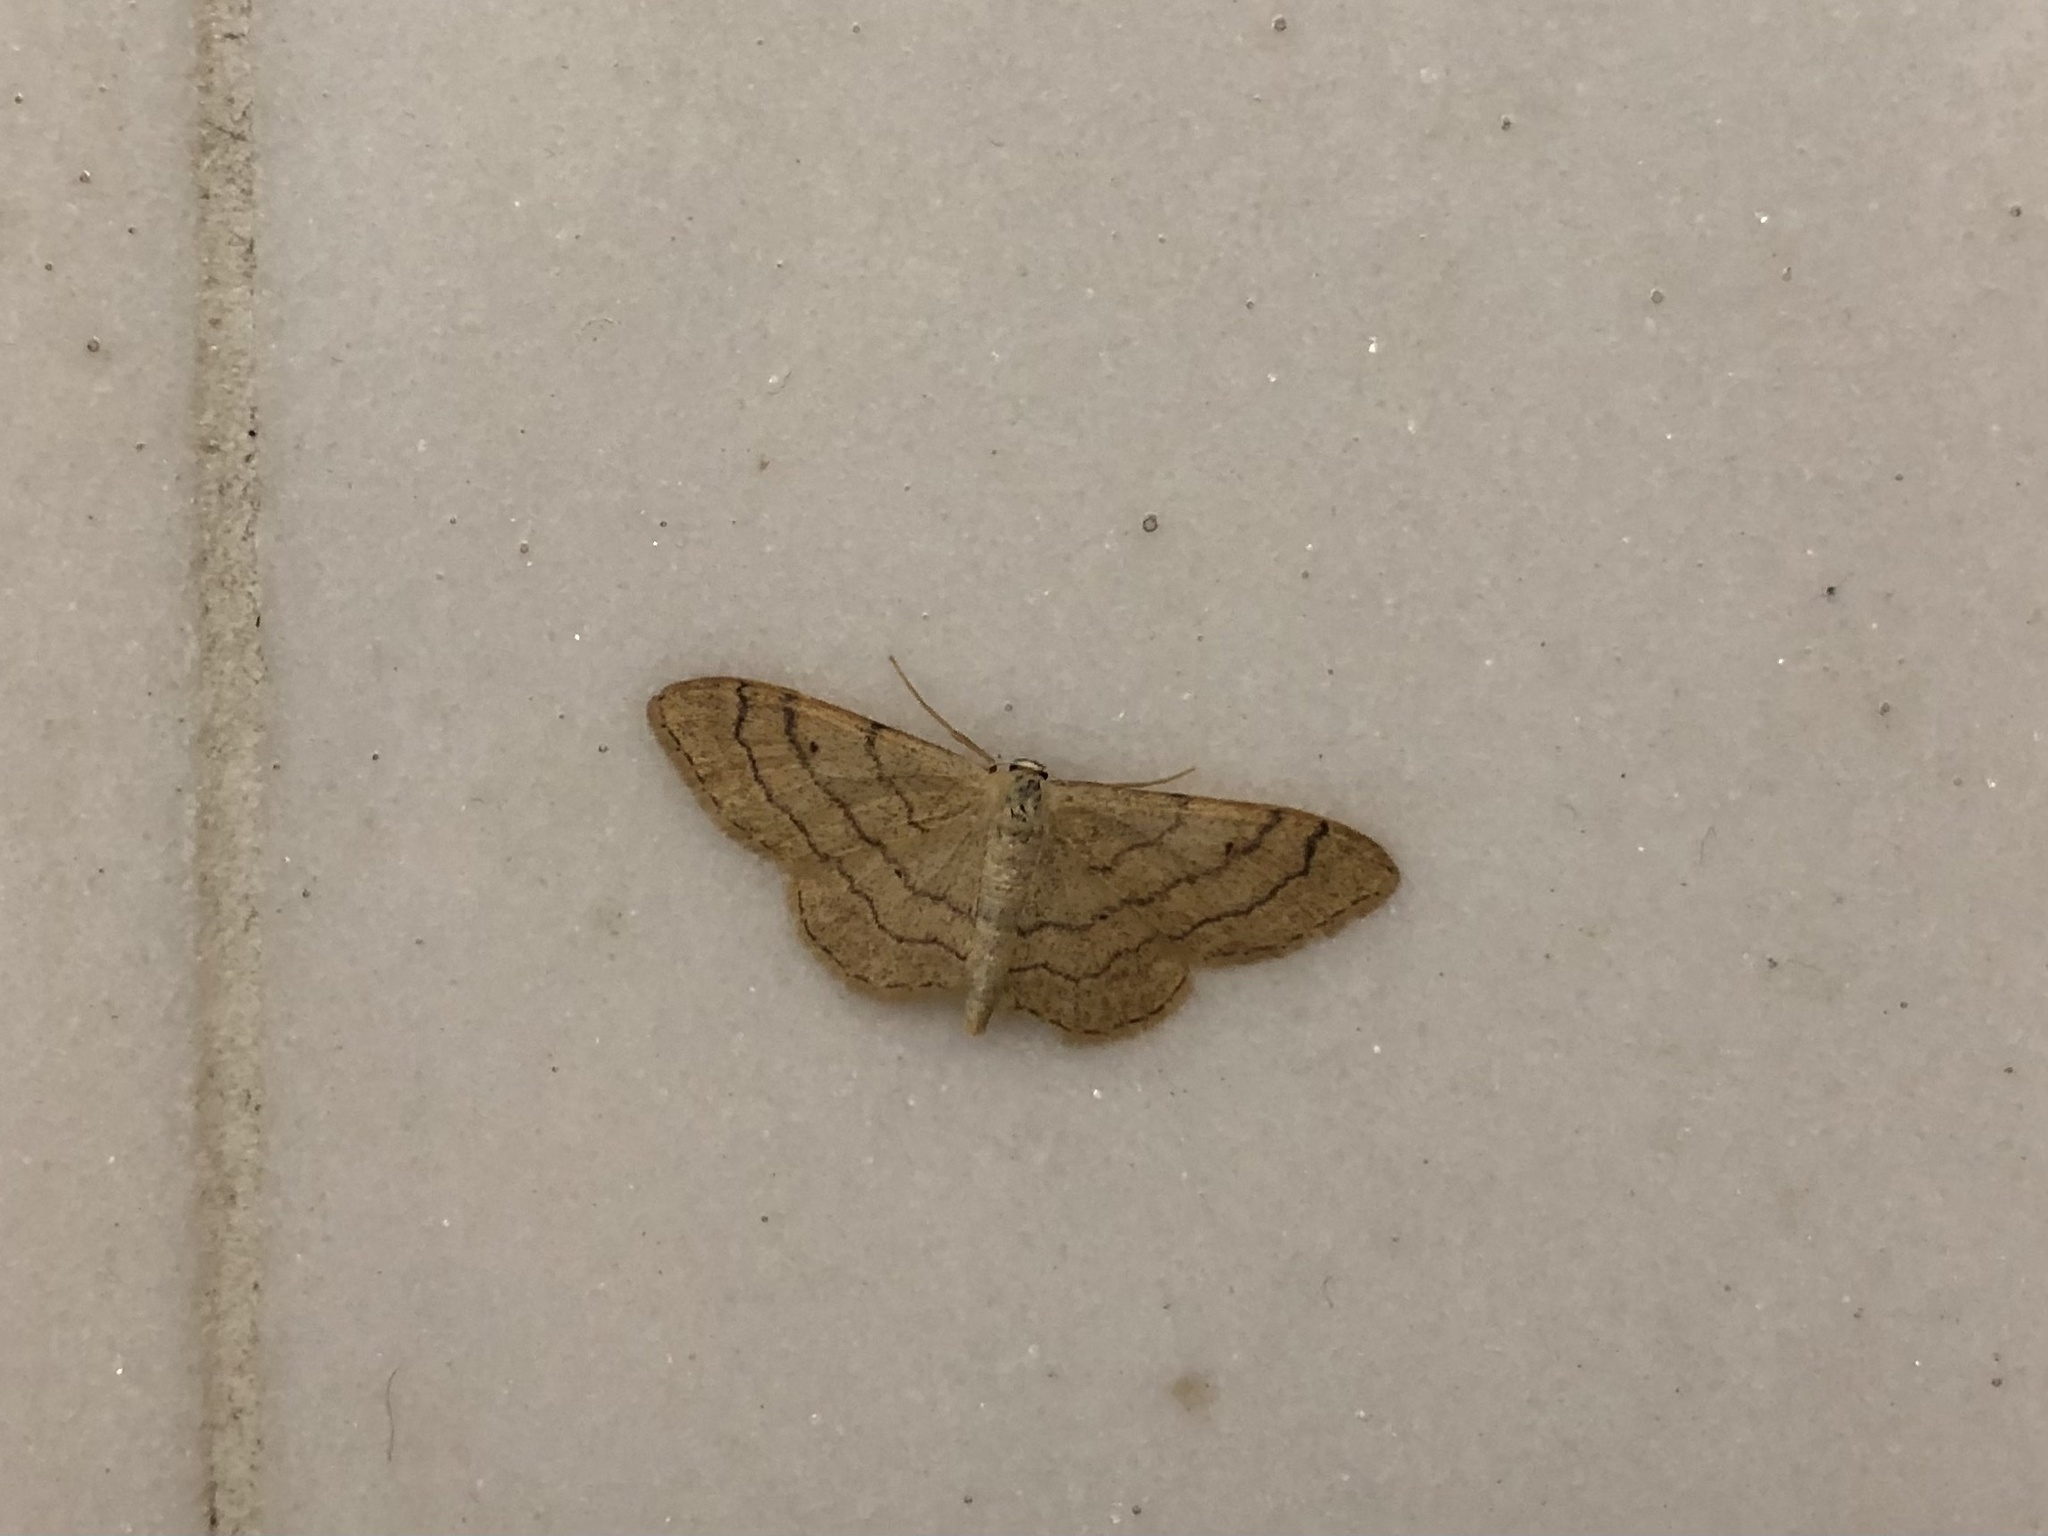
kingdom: Animalia
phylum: Arthropoda
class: Insecta
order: Lepidoptera
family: Geometridae
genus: Idaea
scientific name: Idaea aversata
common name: Riband wave
